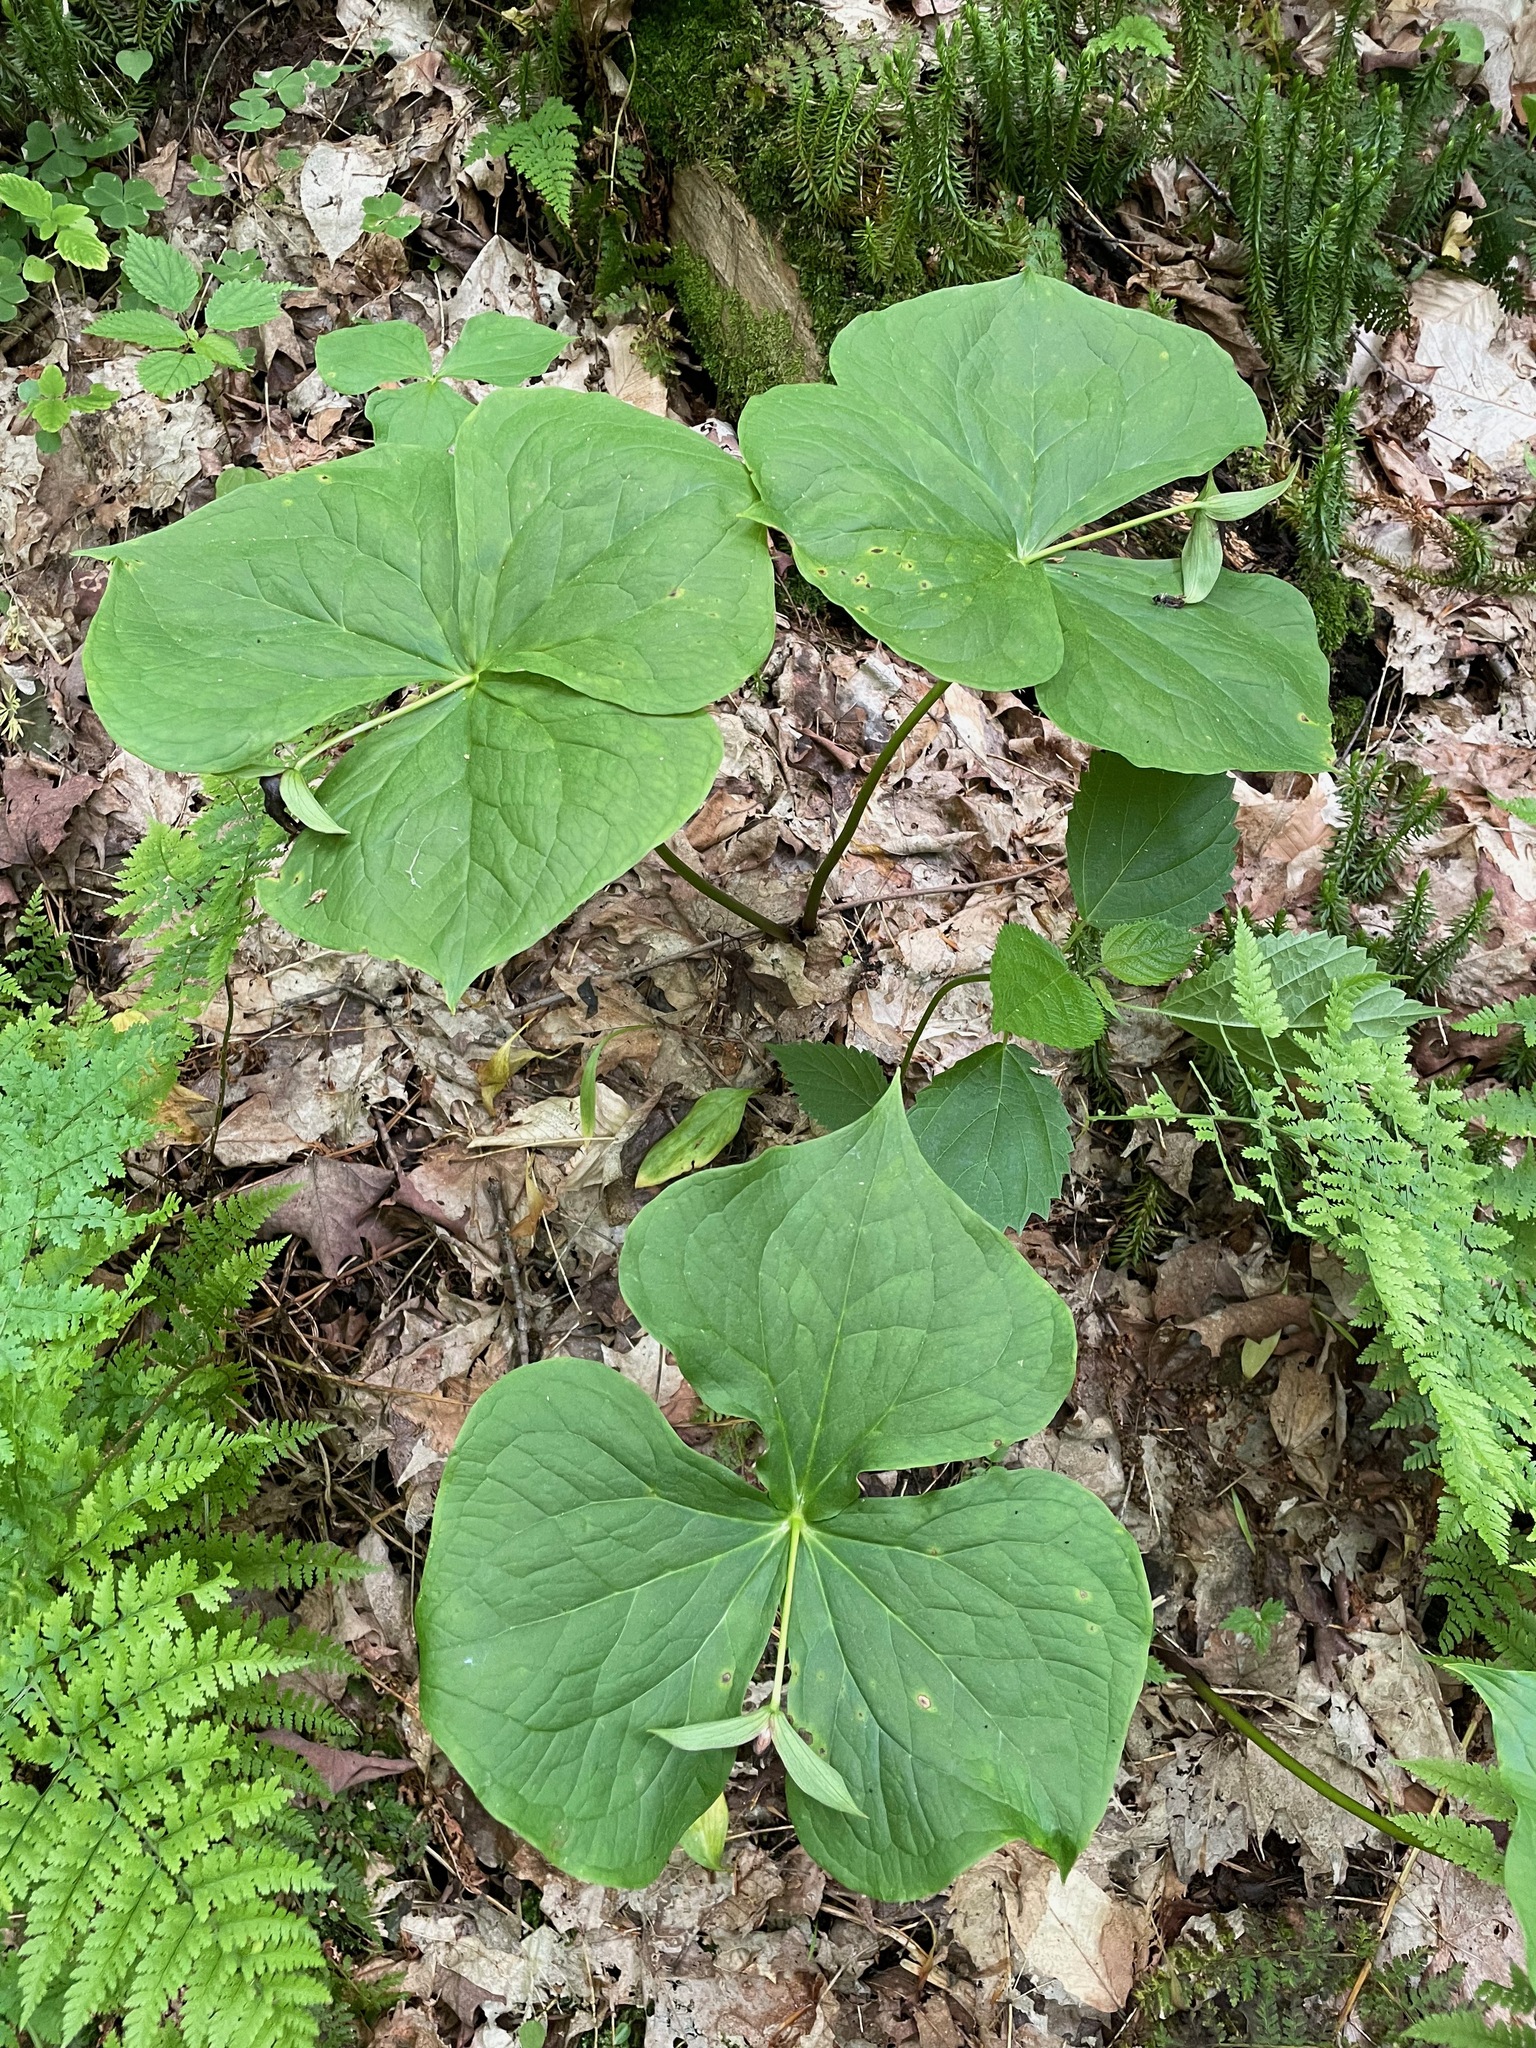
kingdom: Plantae
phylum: Tracheophyta
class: Liliopsida
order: Liliales
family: Melanthiaceae
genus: Trillium
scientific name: Trillium erectum
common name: Purple trillium
